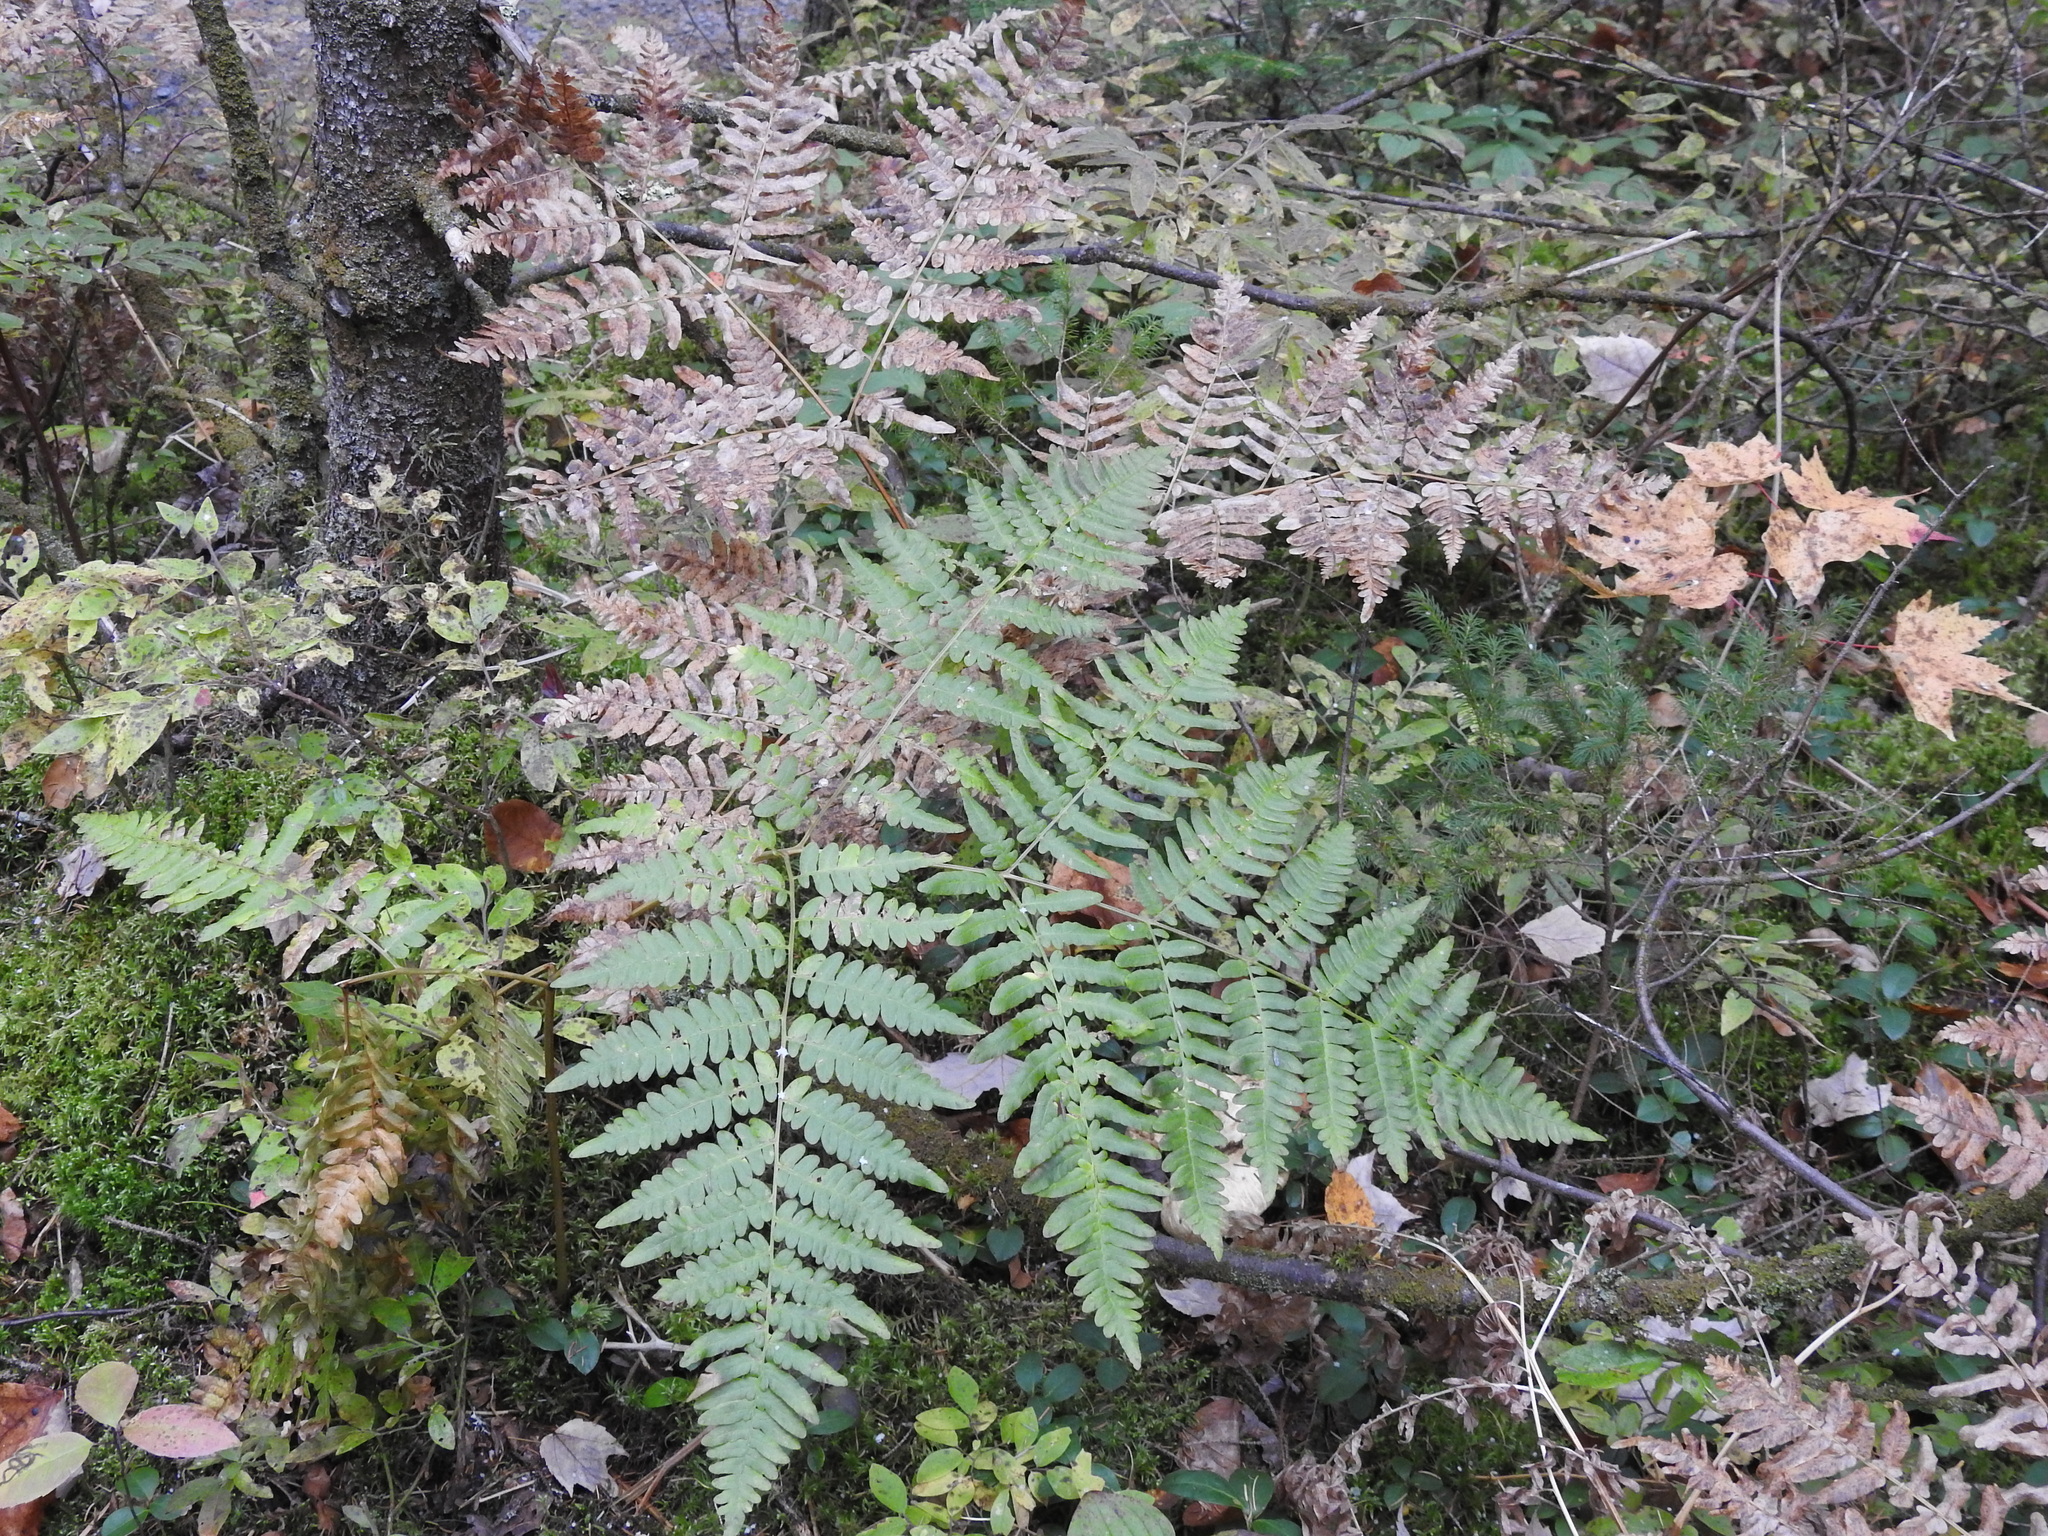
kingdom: Plantae
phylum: Tracheophyta
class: Polypodiopsida
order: Polypodiales
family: Dennstaedtiaceae
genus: Pteridium
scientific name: Pteridium aquilinum
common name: Bracken
